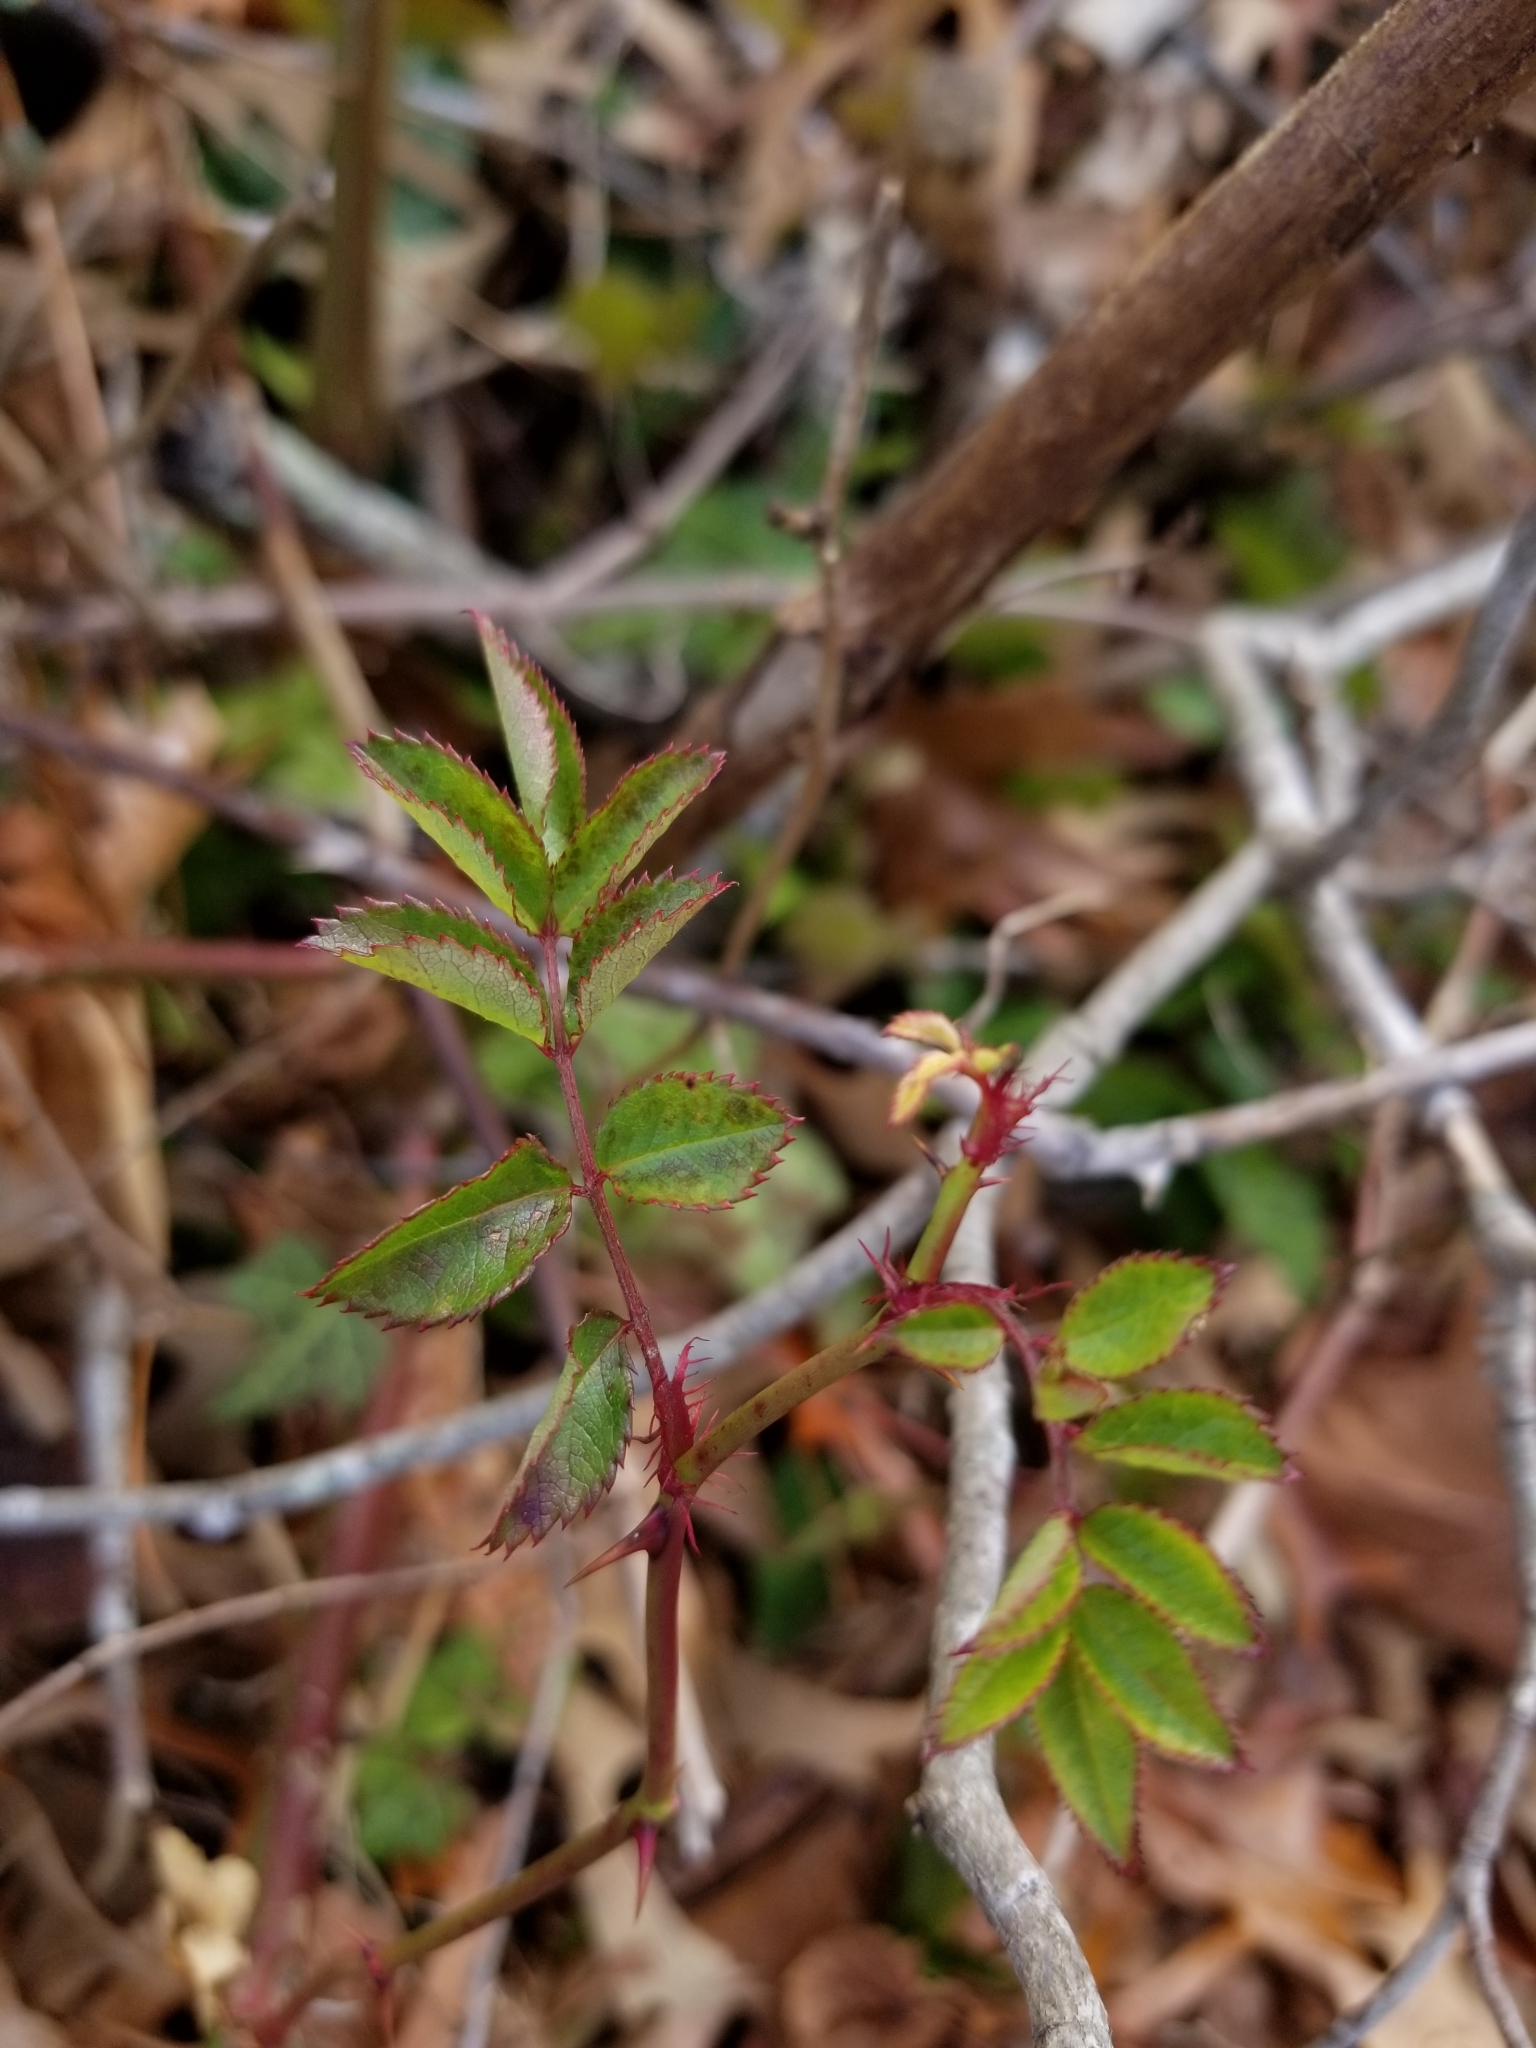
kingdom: Plantae
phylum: Tracheophyta
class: Magnoliopsida
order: Rosales
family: Rosaceae
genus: Rosa
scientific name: Rosa multiflora
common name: Multiflora rose
